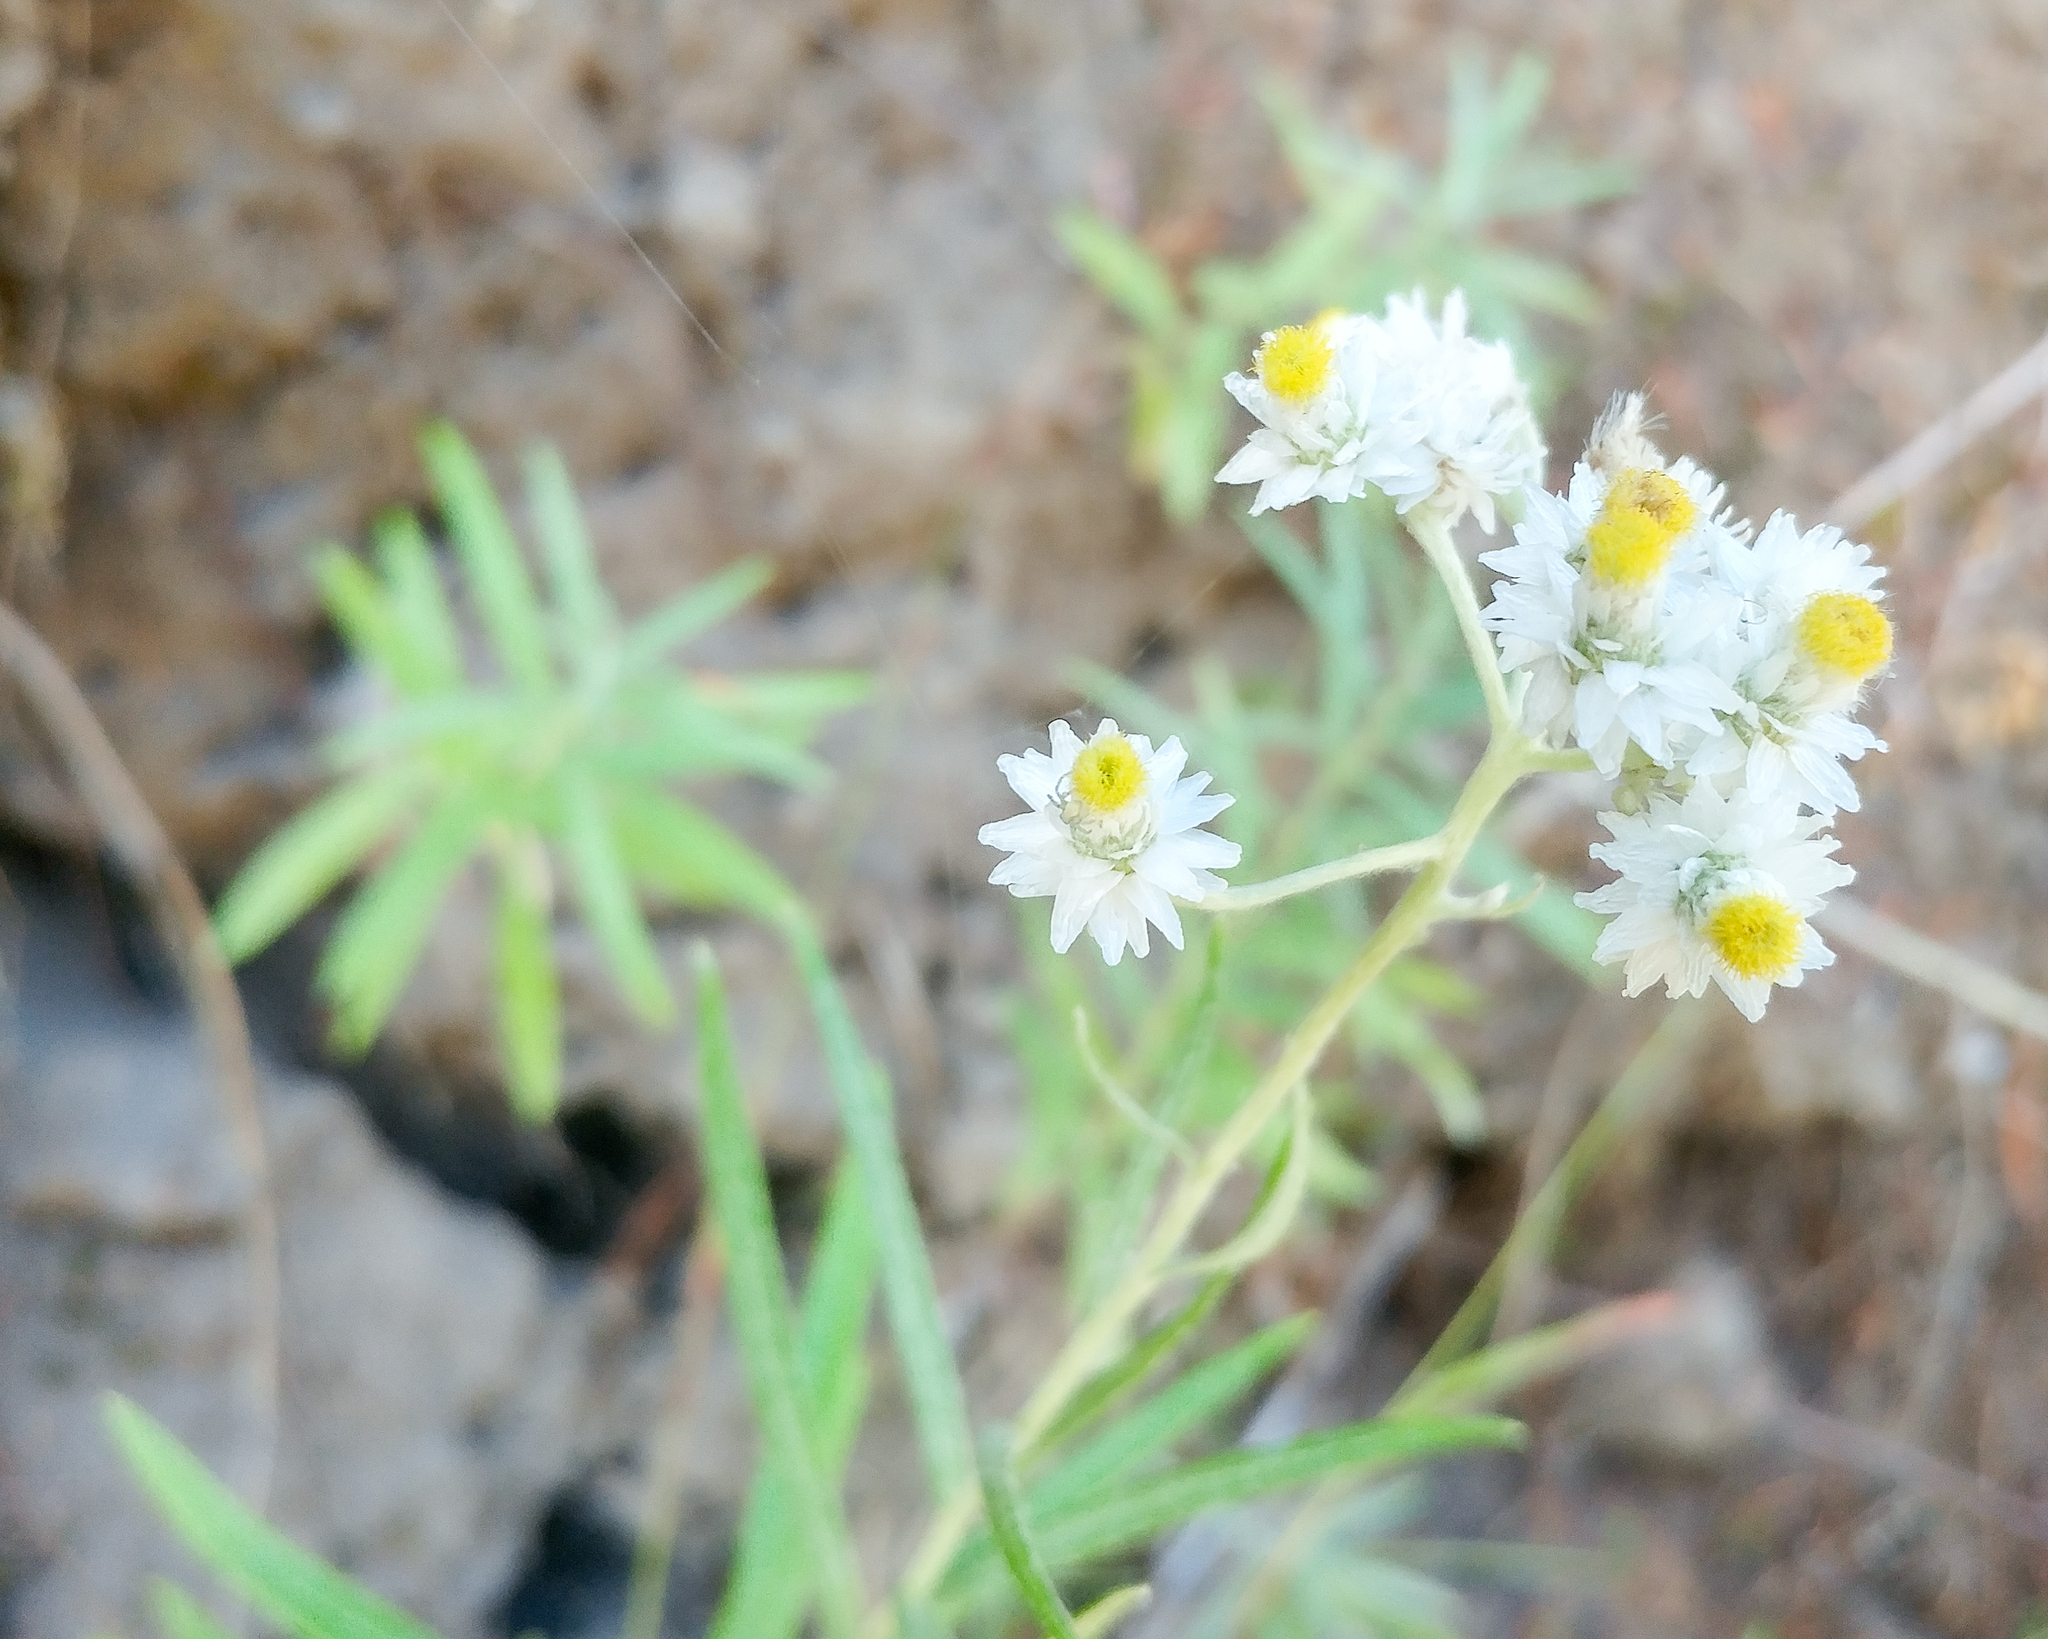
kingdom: Plantae
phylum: Tracheophyta
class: Magnoliopsida
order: Asterales
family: Asteraceae
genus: Anaphalis
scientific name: Anaphalis margaritacea
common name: Pearly everlasting
